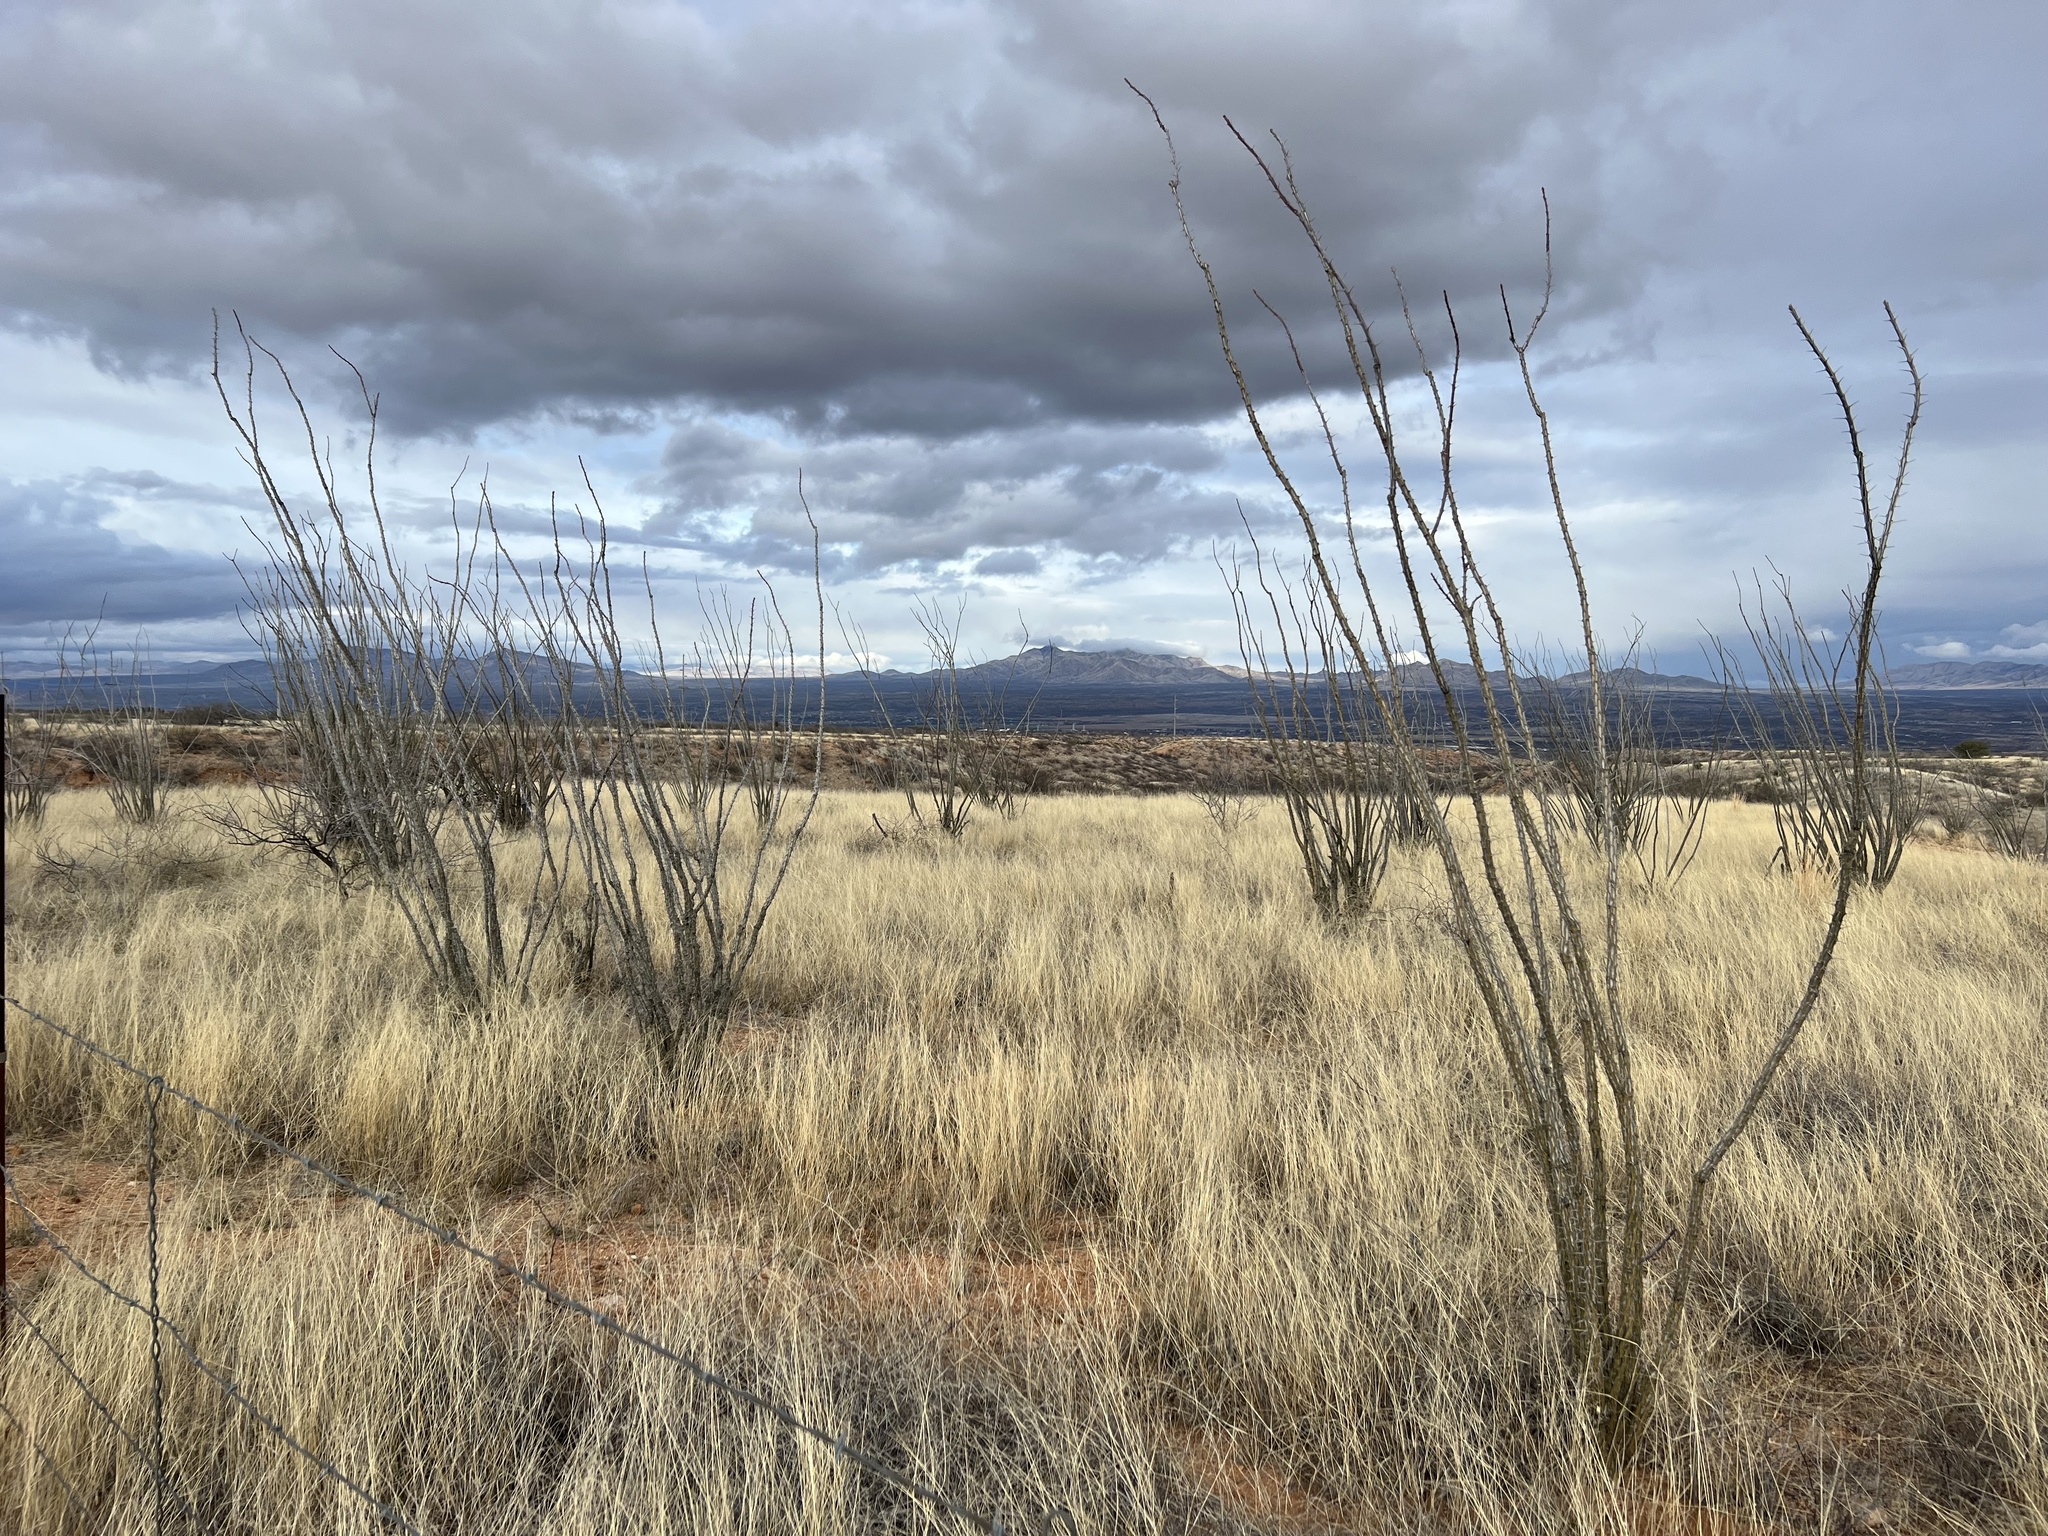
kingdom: Plantae
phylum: Tracheophyta
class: Magnoliopsida
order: Ericales
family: Fouquieriaceae
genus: Fouquieria
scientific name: Fouquieria splendens
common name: Vine-cactus
